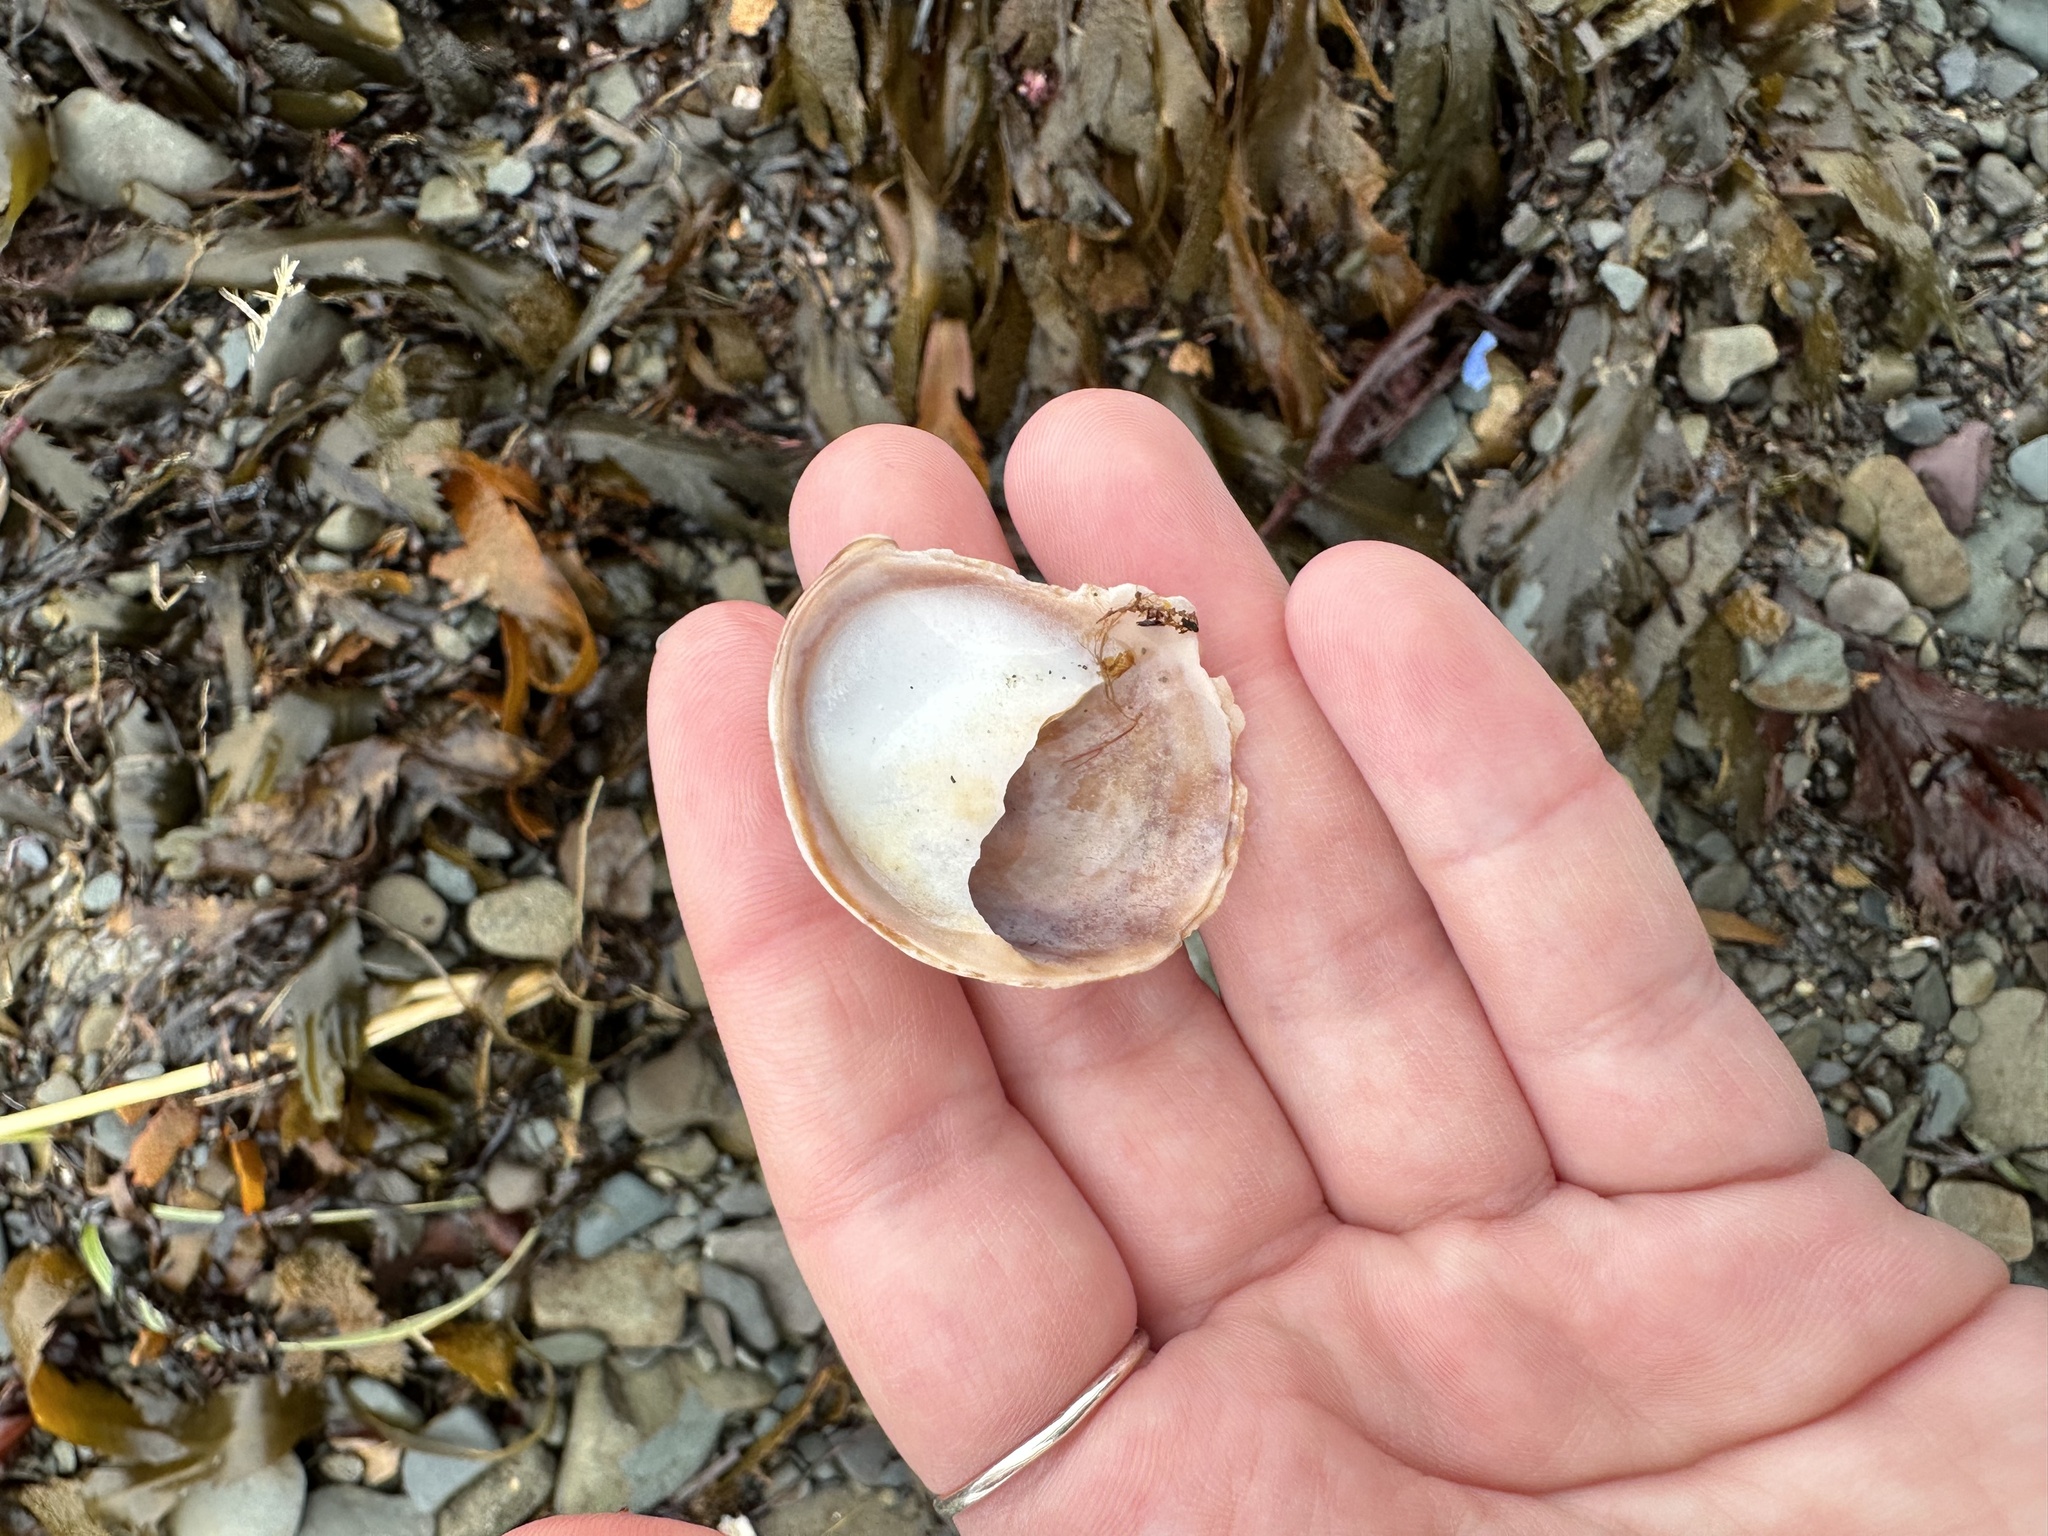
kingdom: Animalia
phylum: Mollusca
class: Gastropoda
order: Littorinimorpha
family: Calyptraeidae
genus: Crepidula
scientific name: Crepidula fornicata
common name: Slipper limpet
